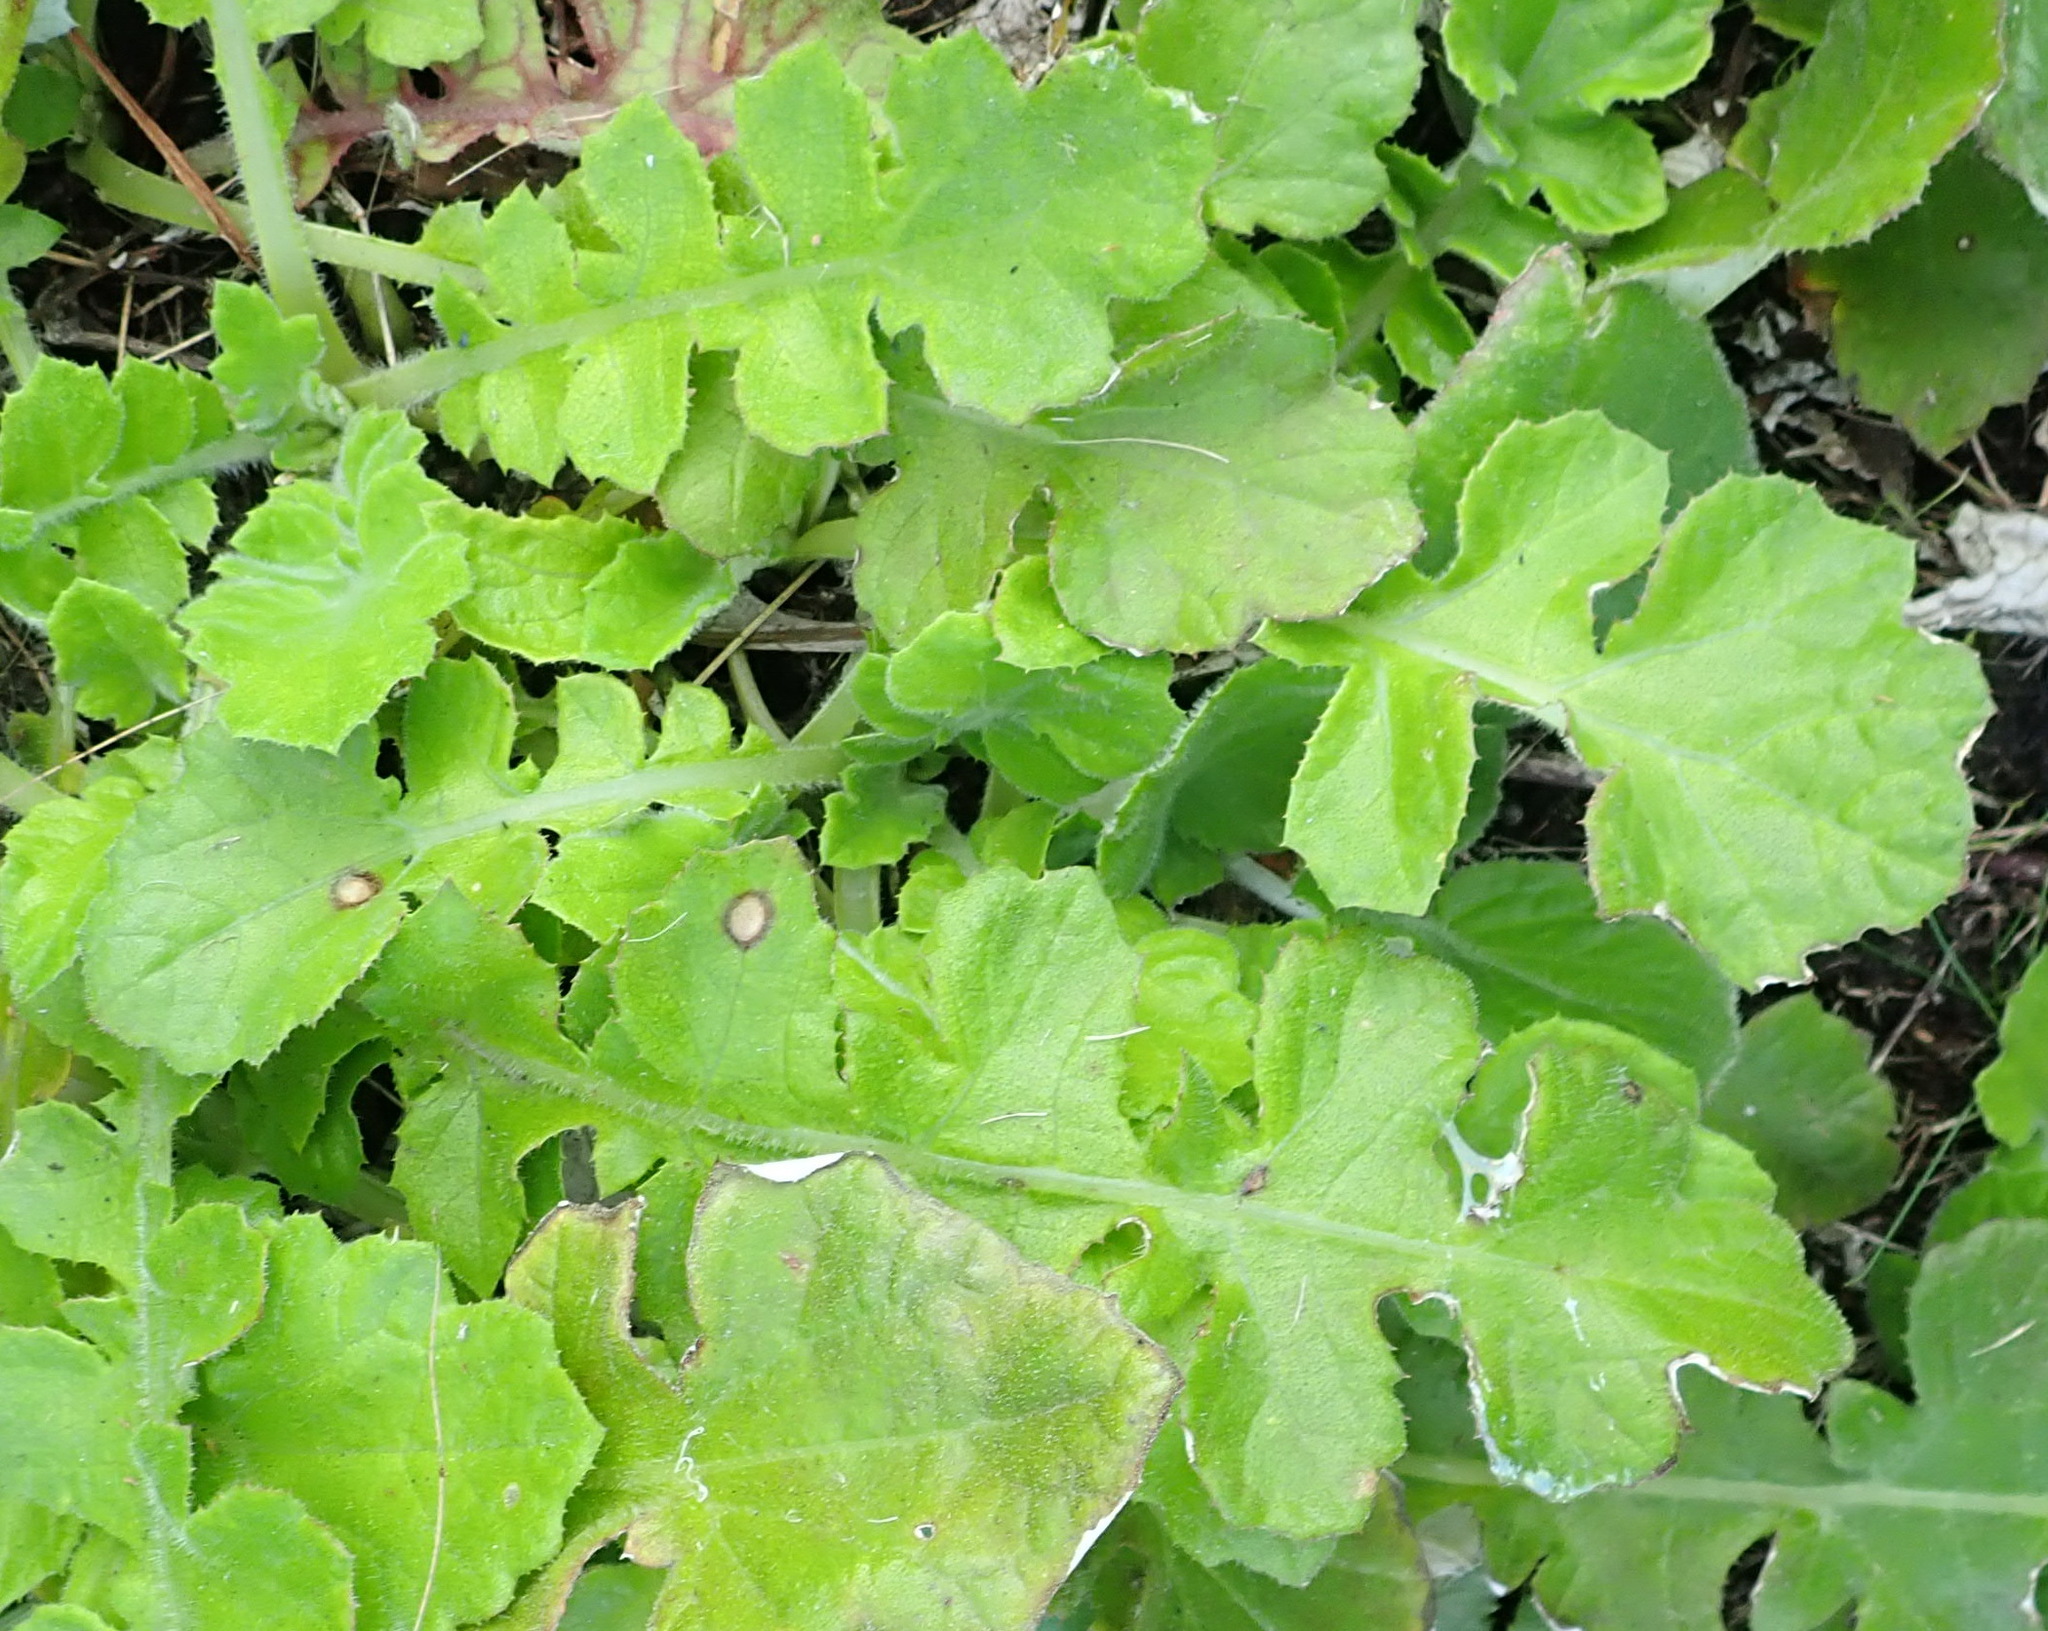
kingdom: Plantae
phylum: Tracheophyta
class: Magnoliopsida
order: Asterales
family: Asteraceae
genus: Arctotheca
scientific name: Arctotheca prostrata
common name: Capeweed
